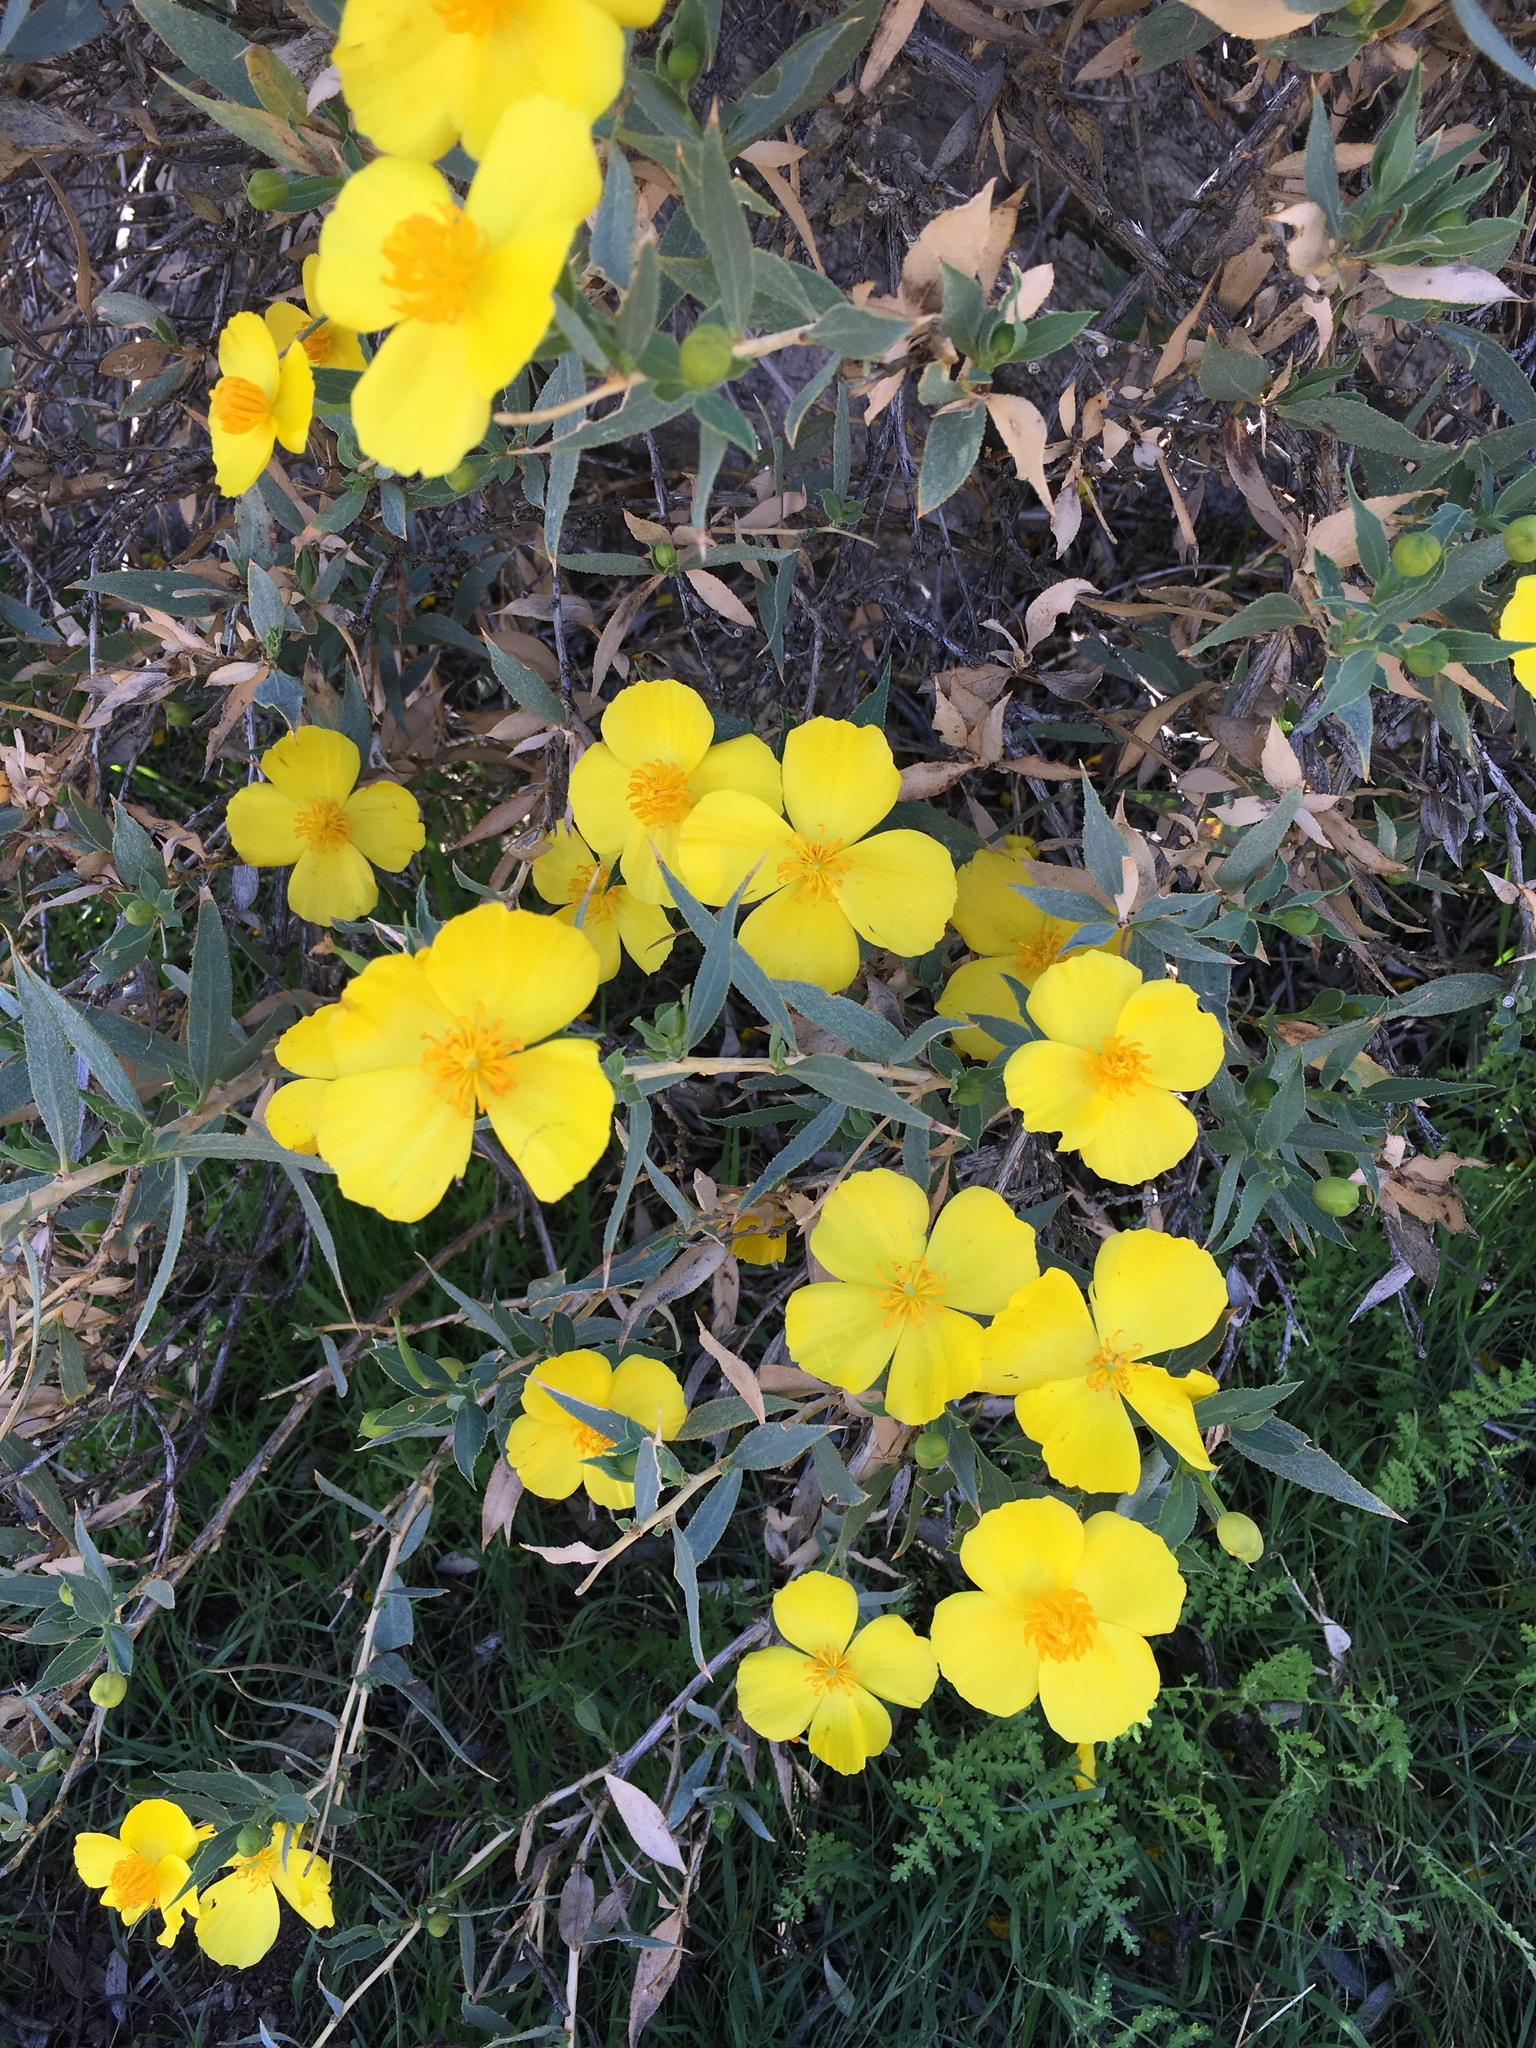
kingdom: Plantae
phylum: Tracheophyta
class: Magnoliopsida
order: Ranunculales
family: Papaveraceae
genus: Dendromecon
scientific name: Dendromecon rigida
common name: Tree poppy
